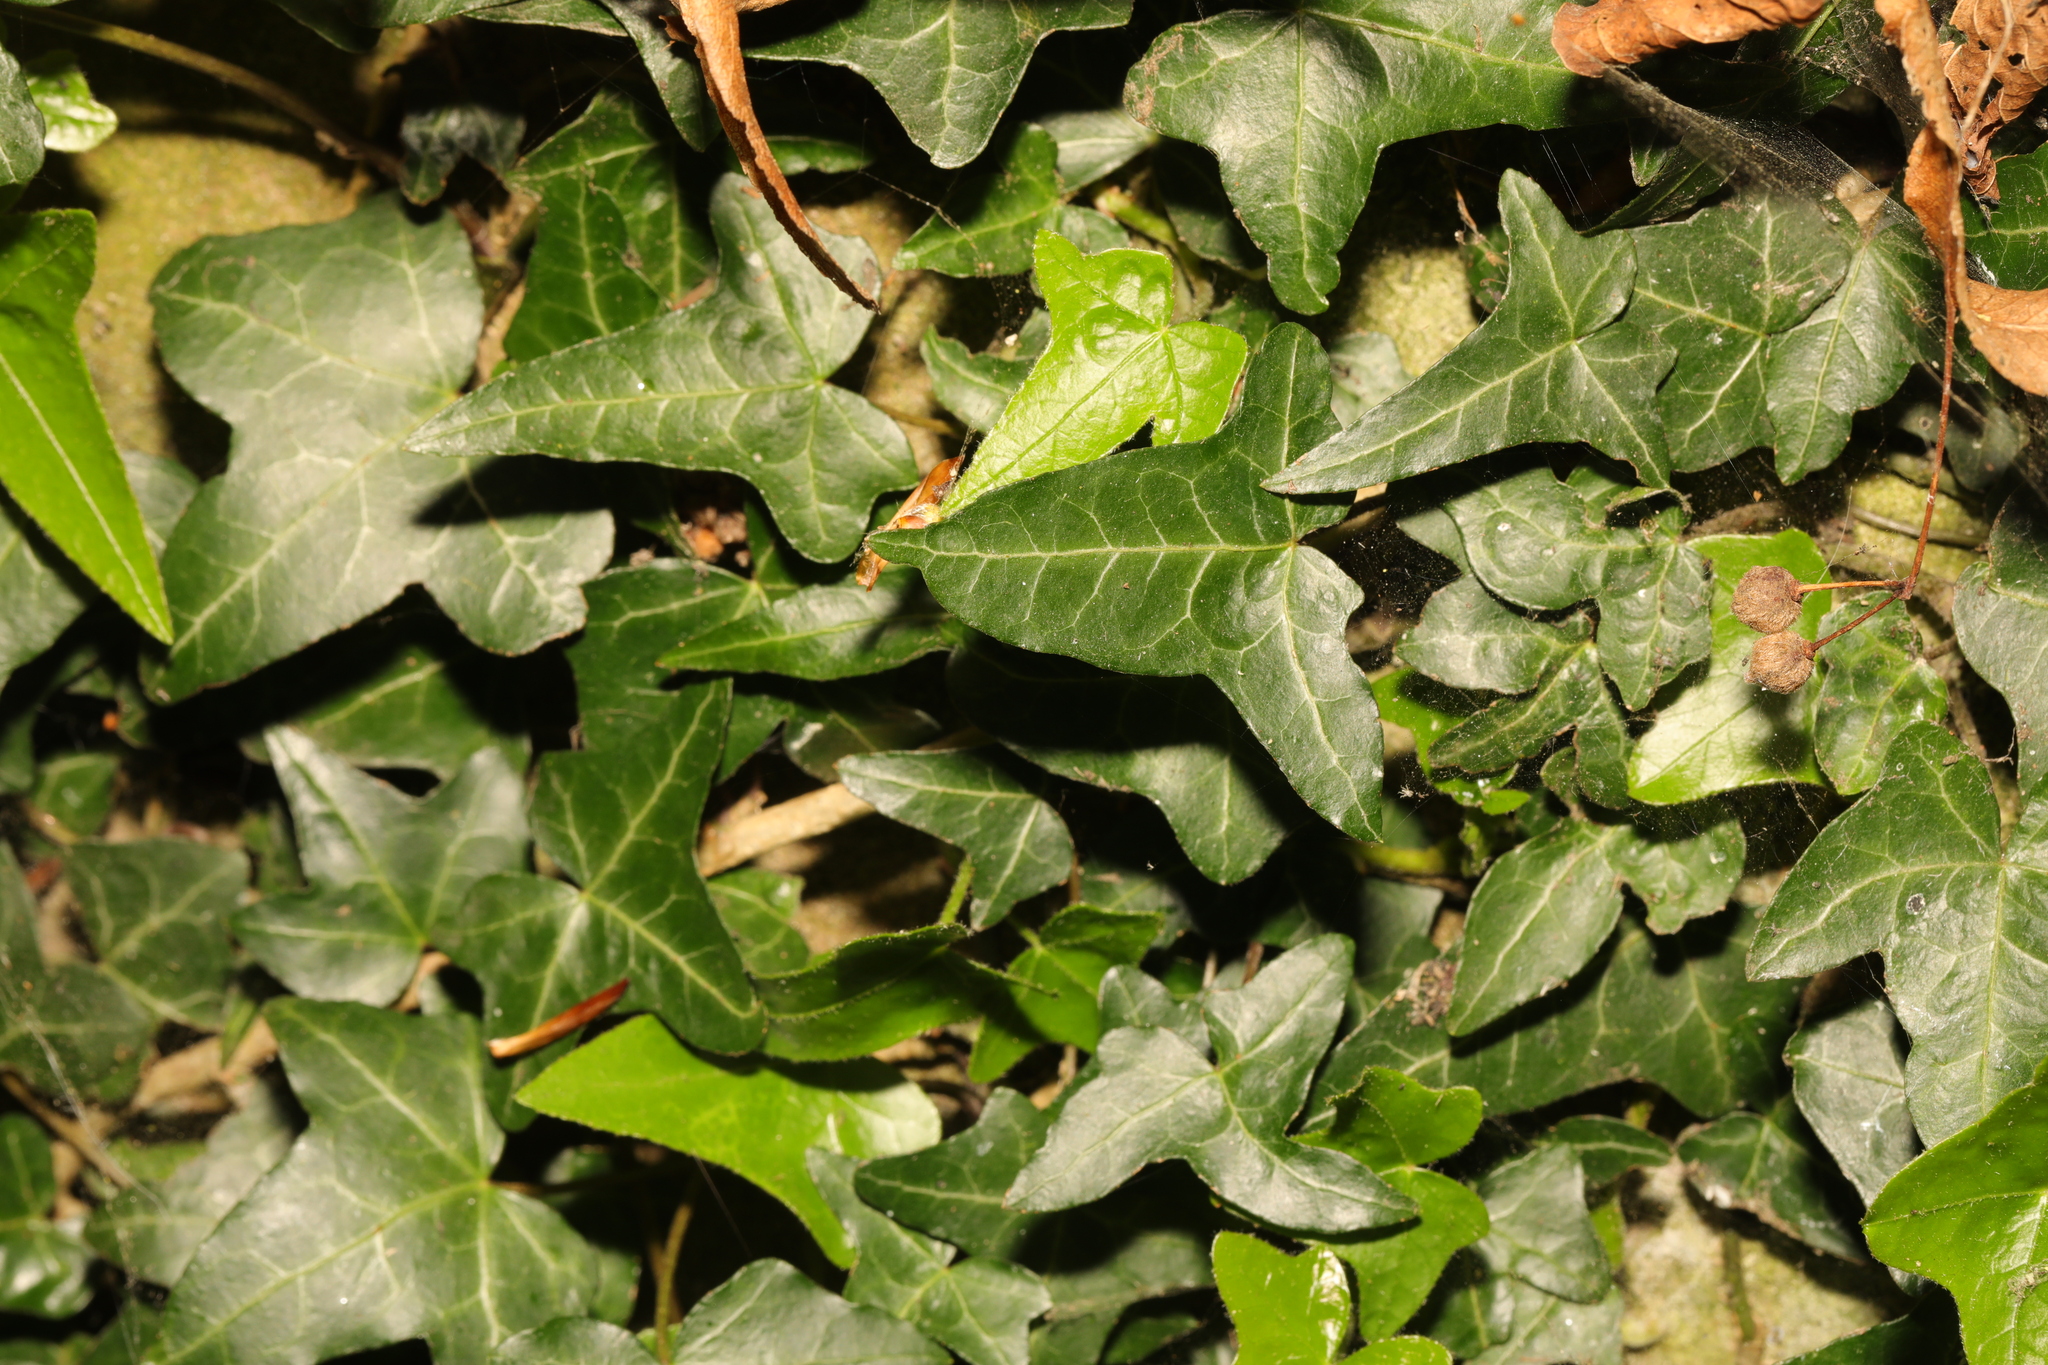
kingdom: Plantae
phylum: Tracheophyta
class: Magnoliopsida
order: Apiales
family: Araliaceae
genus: Hedera
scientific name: Hedera helix
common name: Ivy
